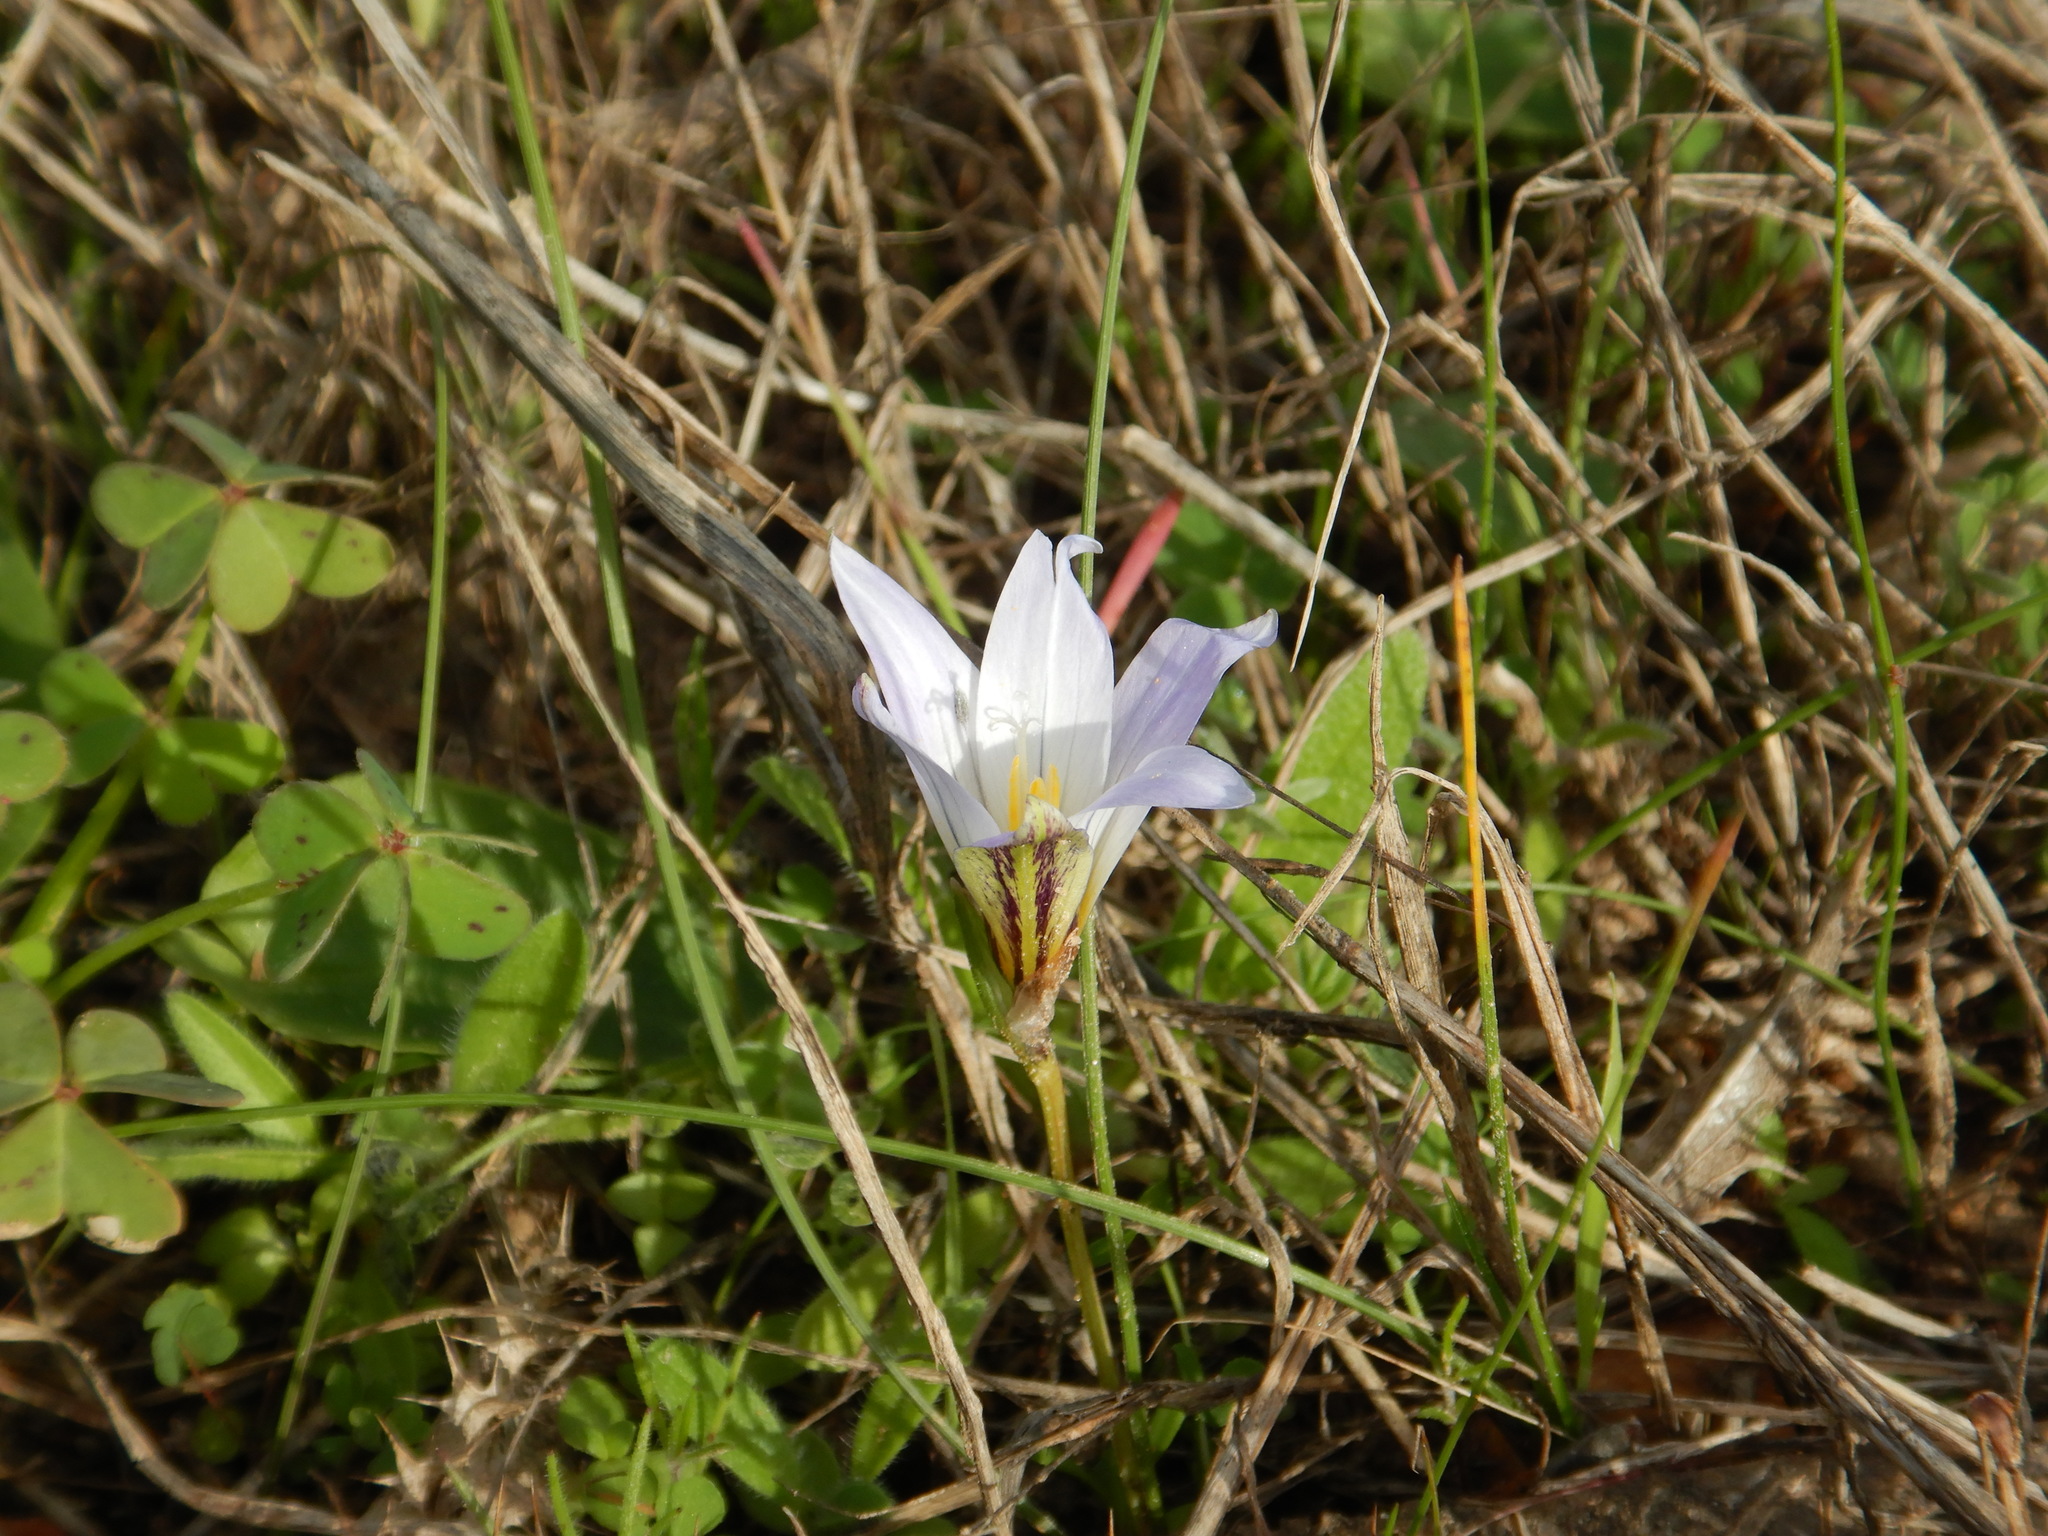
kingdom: Plantae
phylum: Tracheophyta
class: Liliopsida
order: Asparagales
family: Iridaceae
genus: Romulea
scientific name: Romulea bulbocodium
